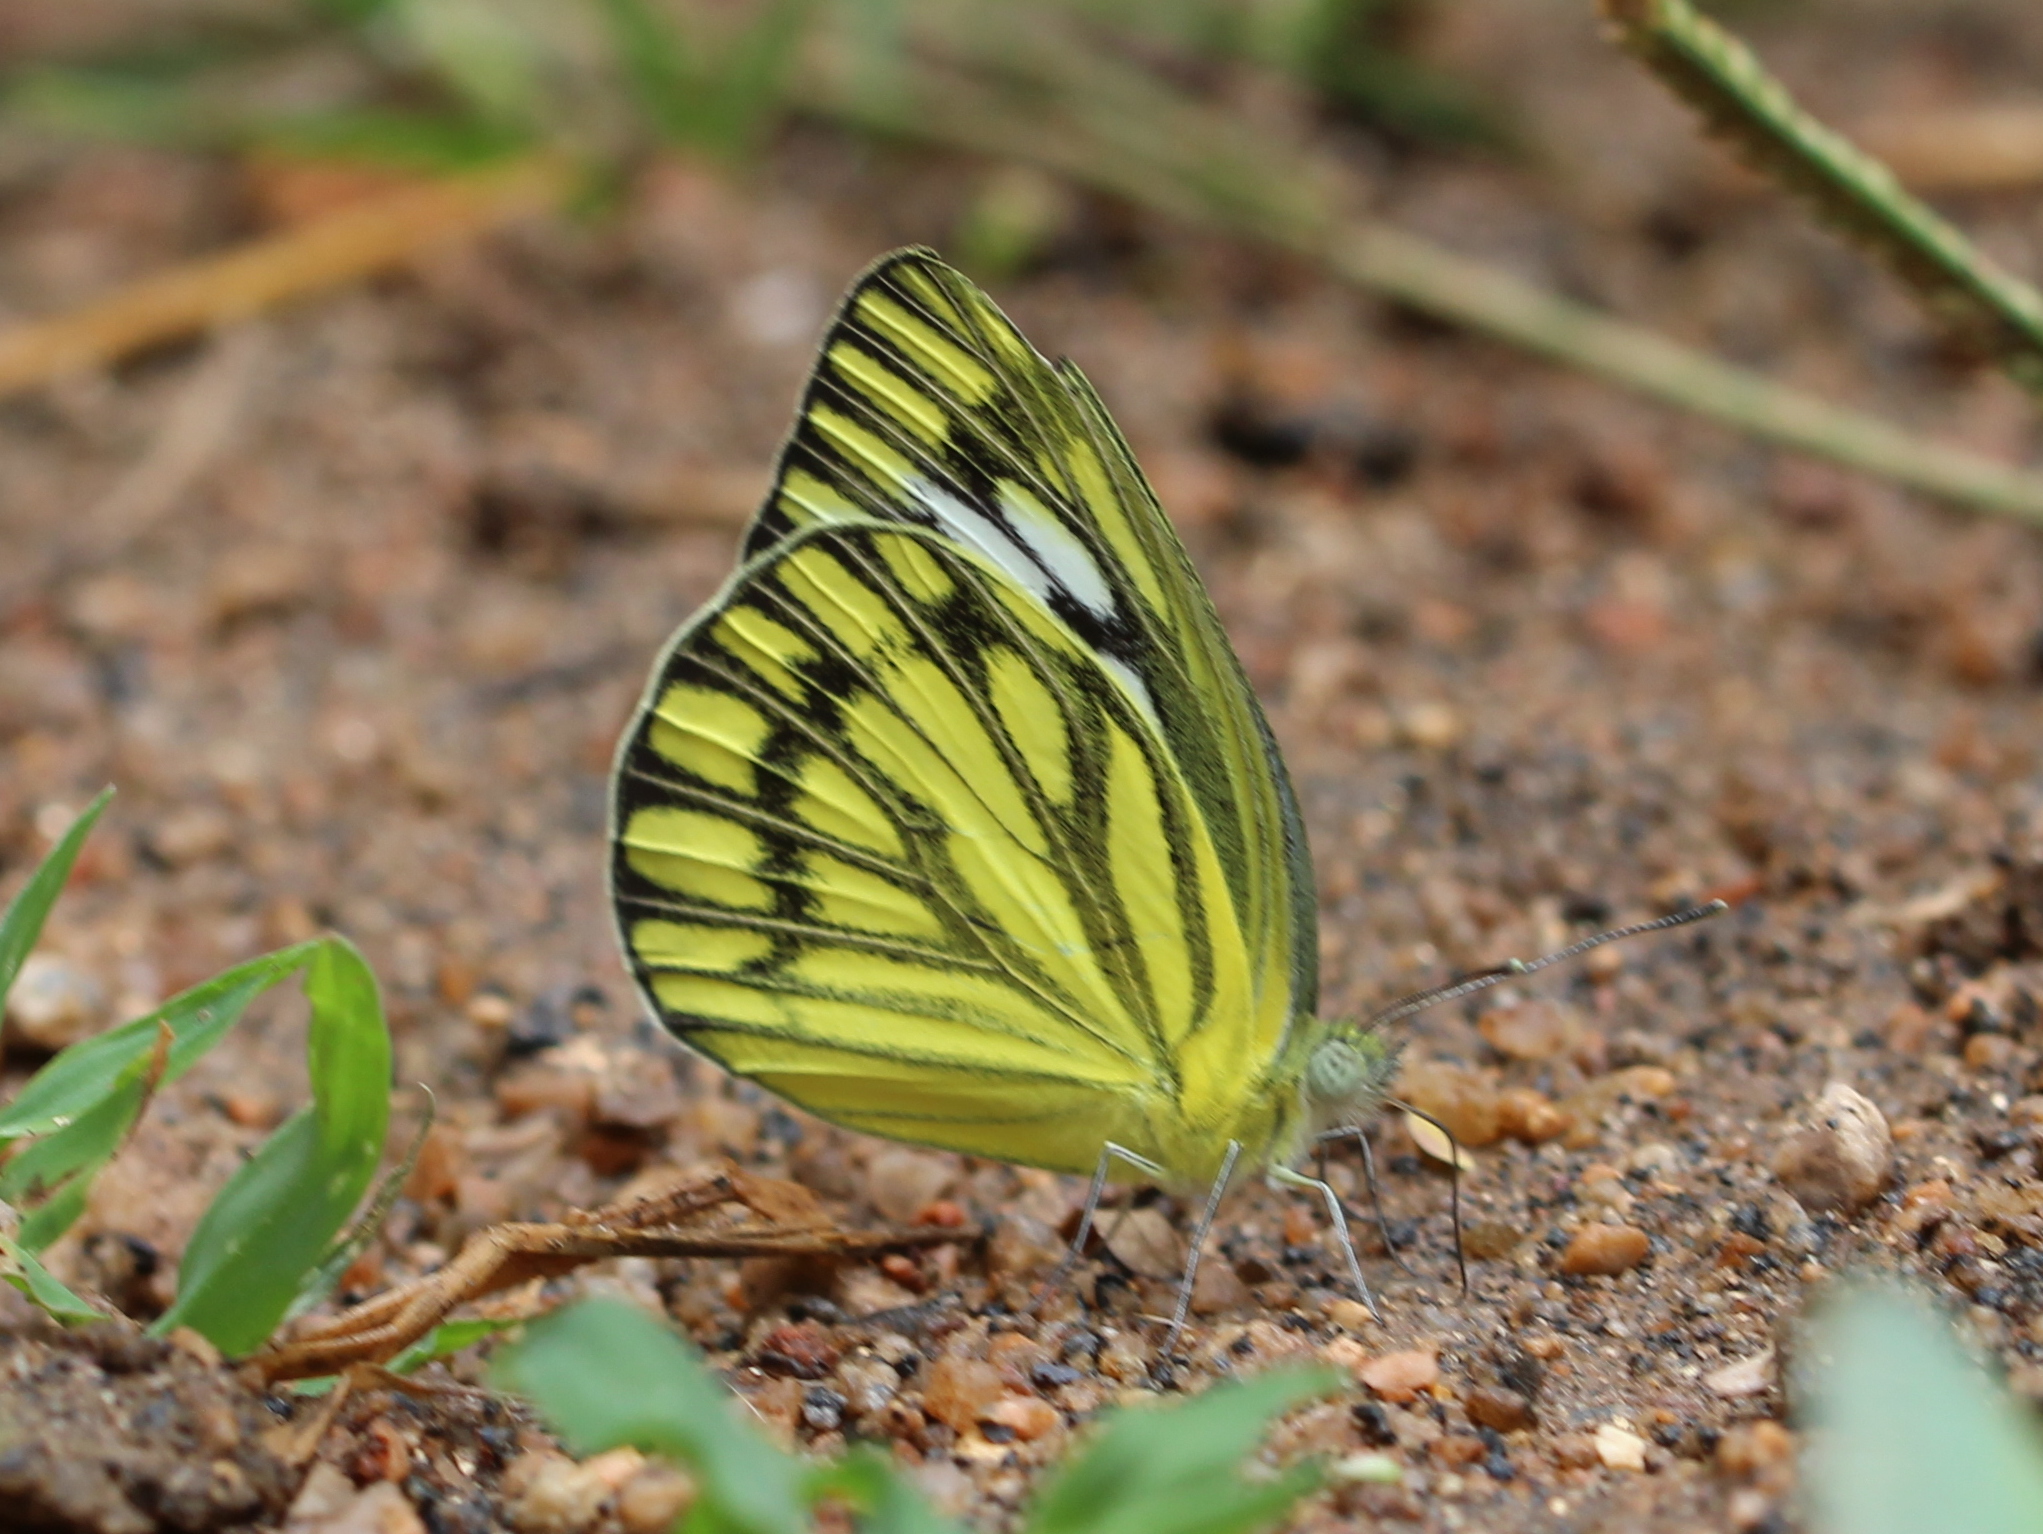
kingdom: Animalia
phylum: Arthropoda
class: Insecta
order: Lepidoptera
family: Pieridae
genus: Cepora
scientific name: Cepora nerissa
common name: Common gull
